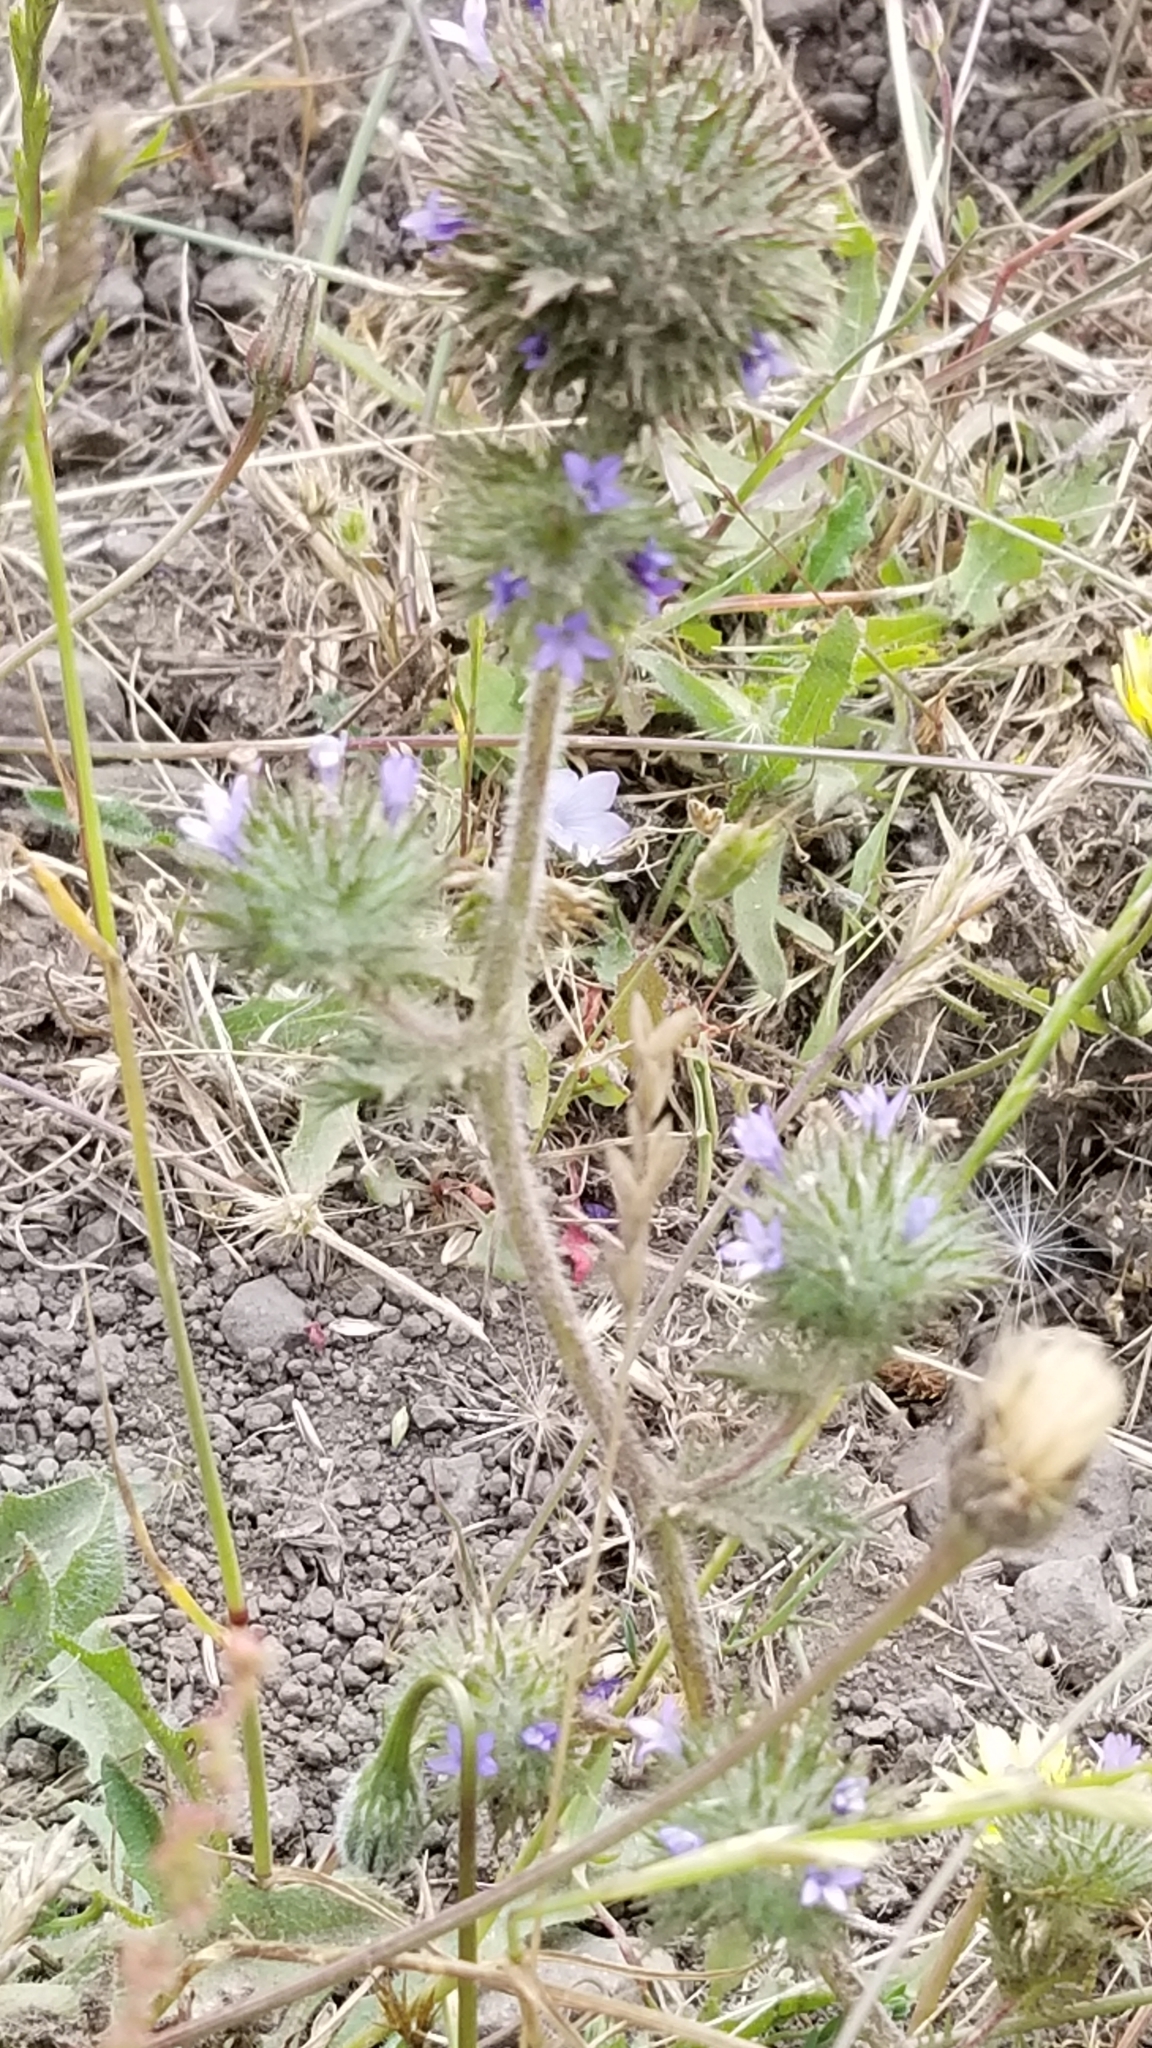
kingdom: Plantae
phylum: Tracheophyta
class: Magnoliopsida
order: Ericales
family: Polemoniaceae
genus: Navarretia
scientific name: Navarretia squarrosa
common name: Skunkweed
